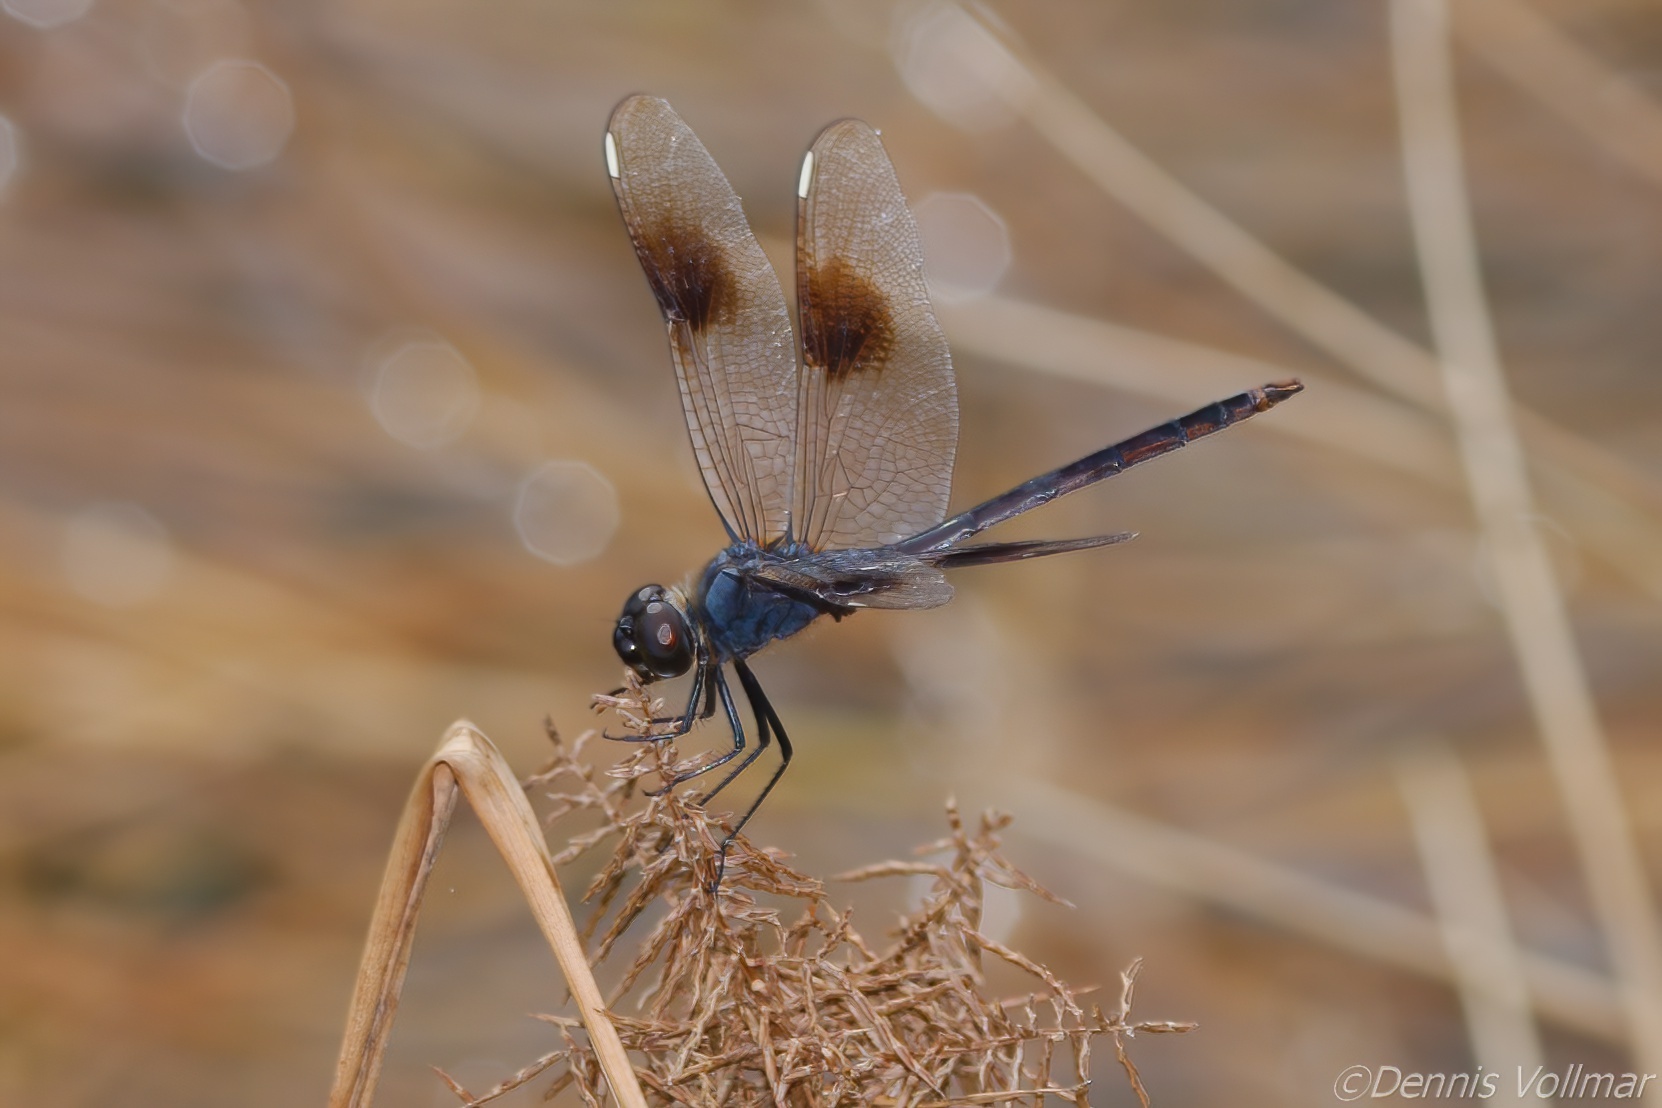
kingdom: Animalia
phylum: Arthropoda
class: Insecta
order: Odonata
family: Libellulidae
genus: Brachymesia
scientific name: Brachymesia gravida
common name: Four-spotted pennant
